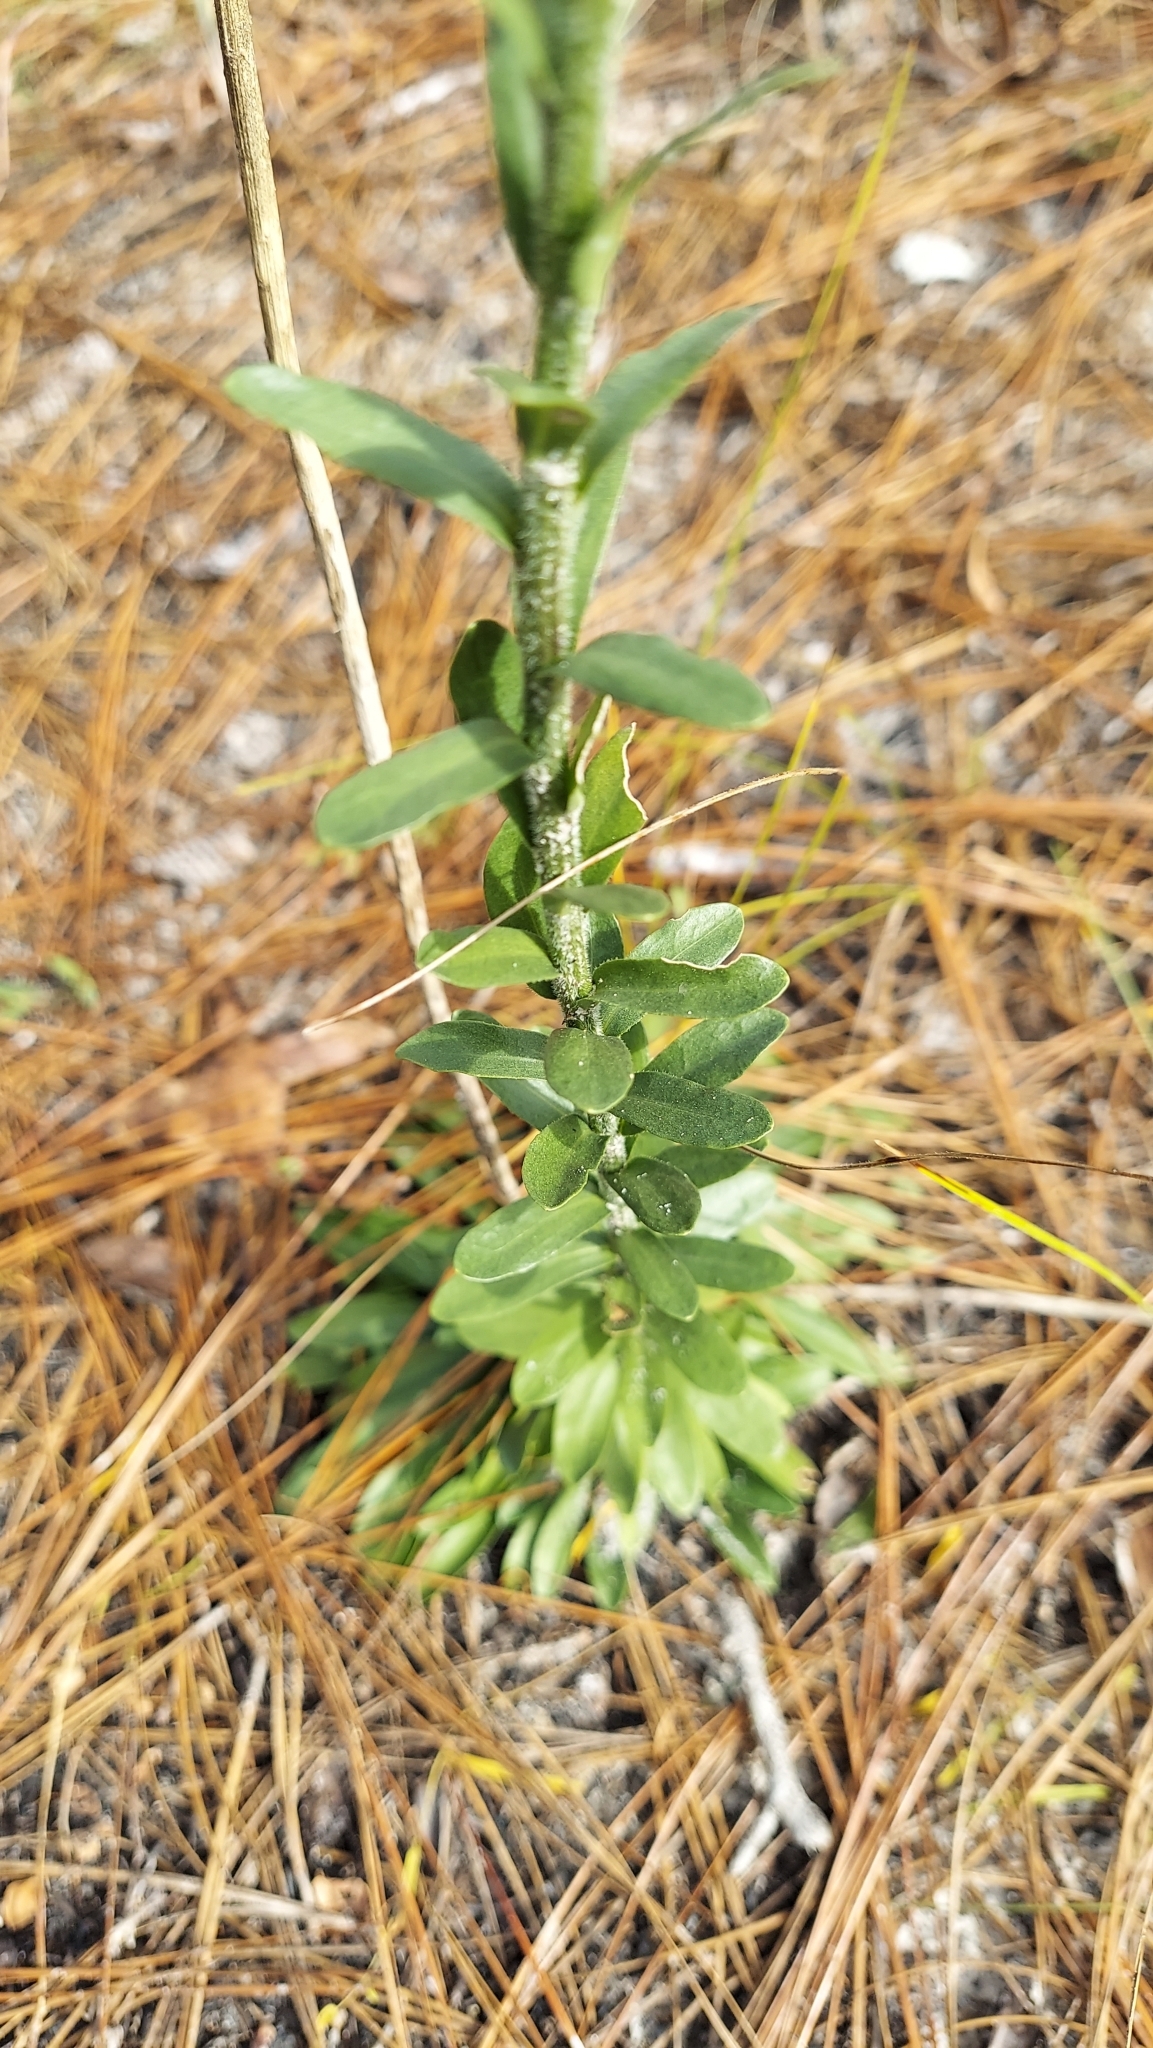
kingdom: Plantae
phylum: Tracheophyta
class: Magnoliopsida
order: Asterales
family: Asteraceae
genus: Carphephorus
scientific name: Carphephorus corymbosus
